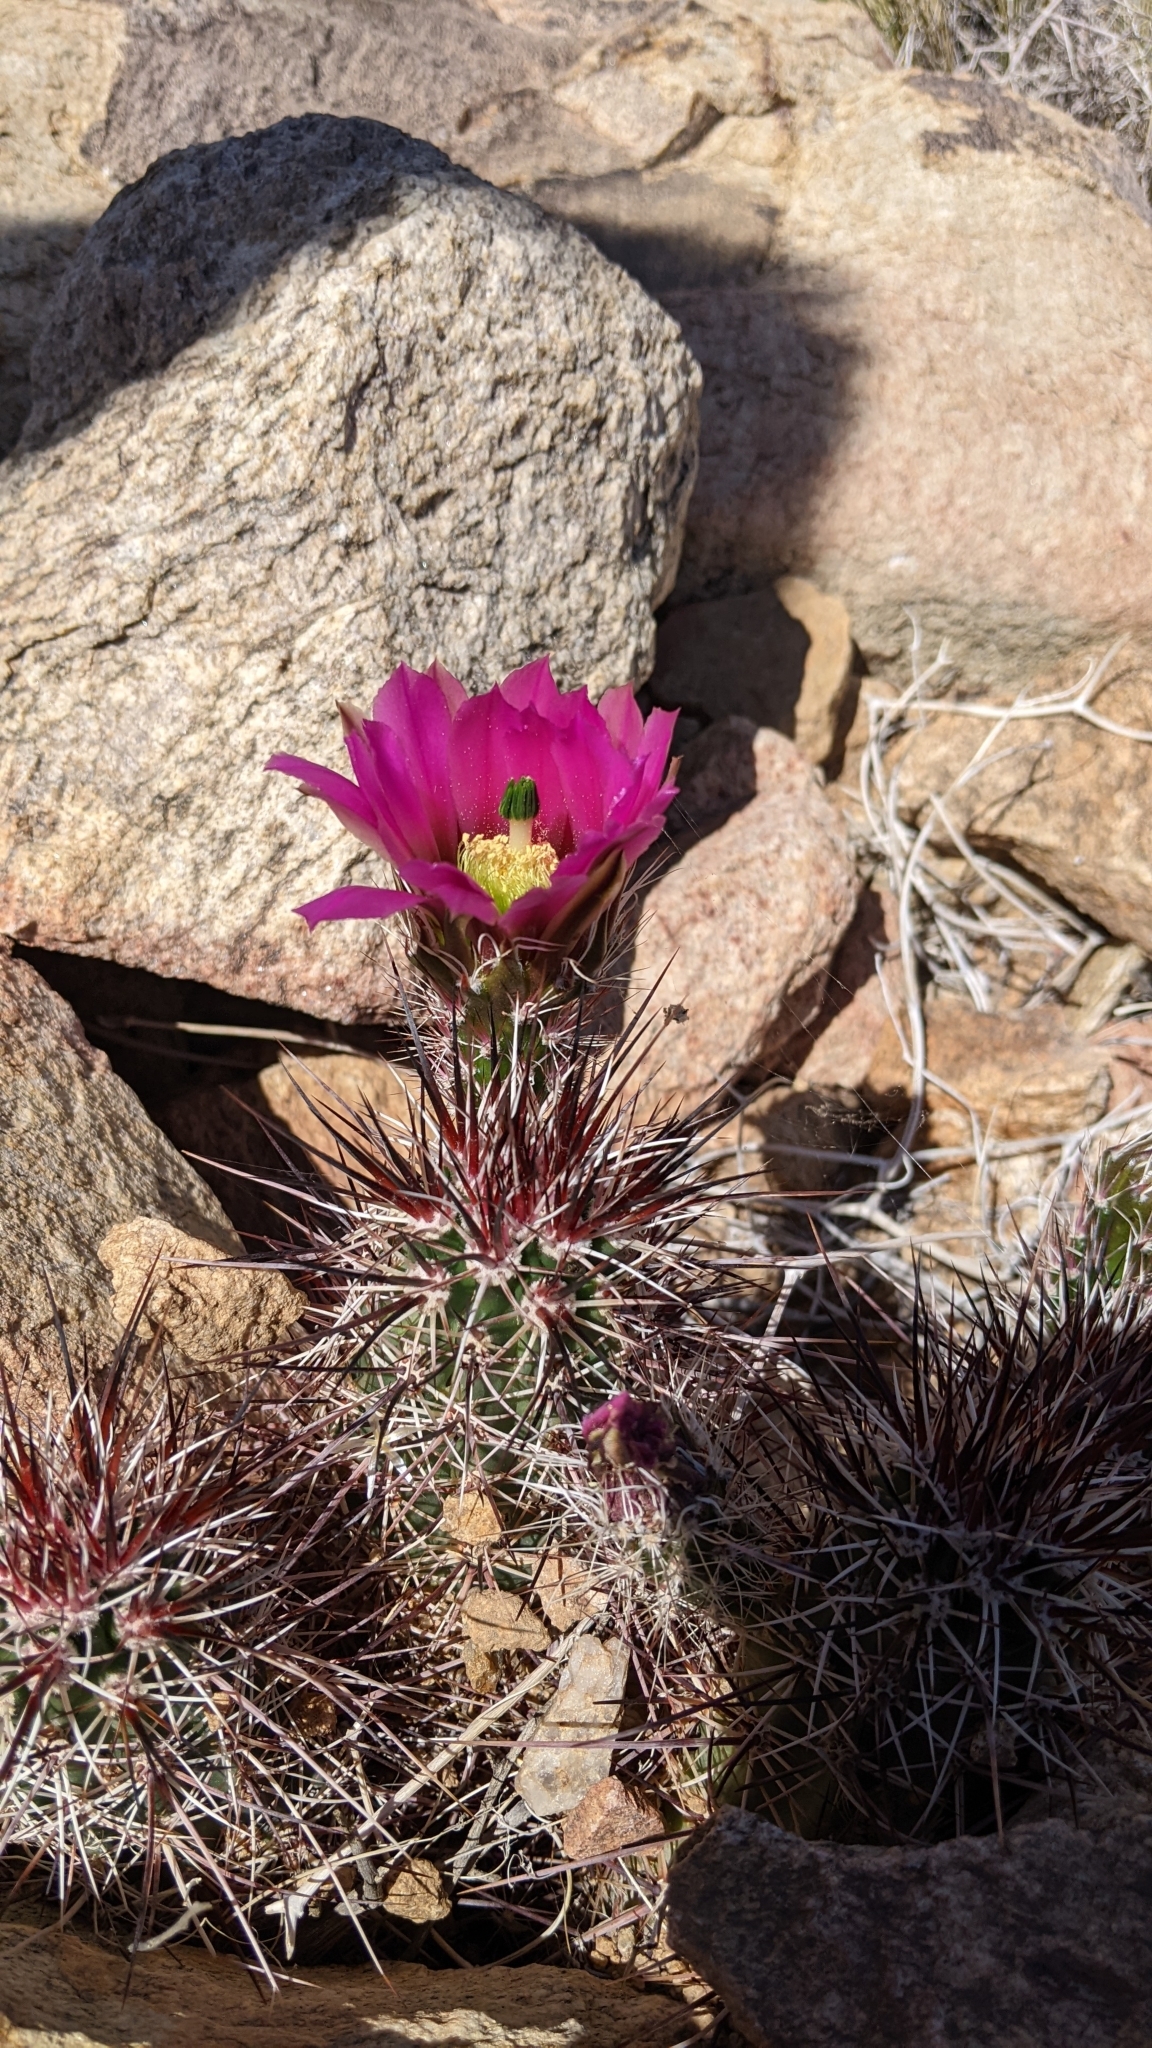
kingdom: Plantae
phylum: Tracheophyta
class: Magnoliopsida
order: Caryophyllales
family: Cactaceae
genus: Echinocereus
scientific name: Echinocereus engelmannii
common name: Engelmann's hedgehog cactus
